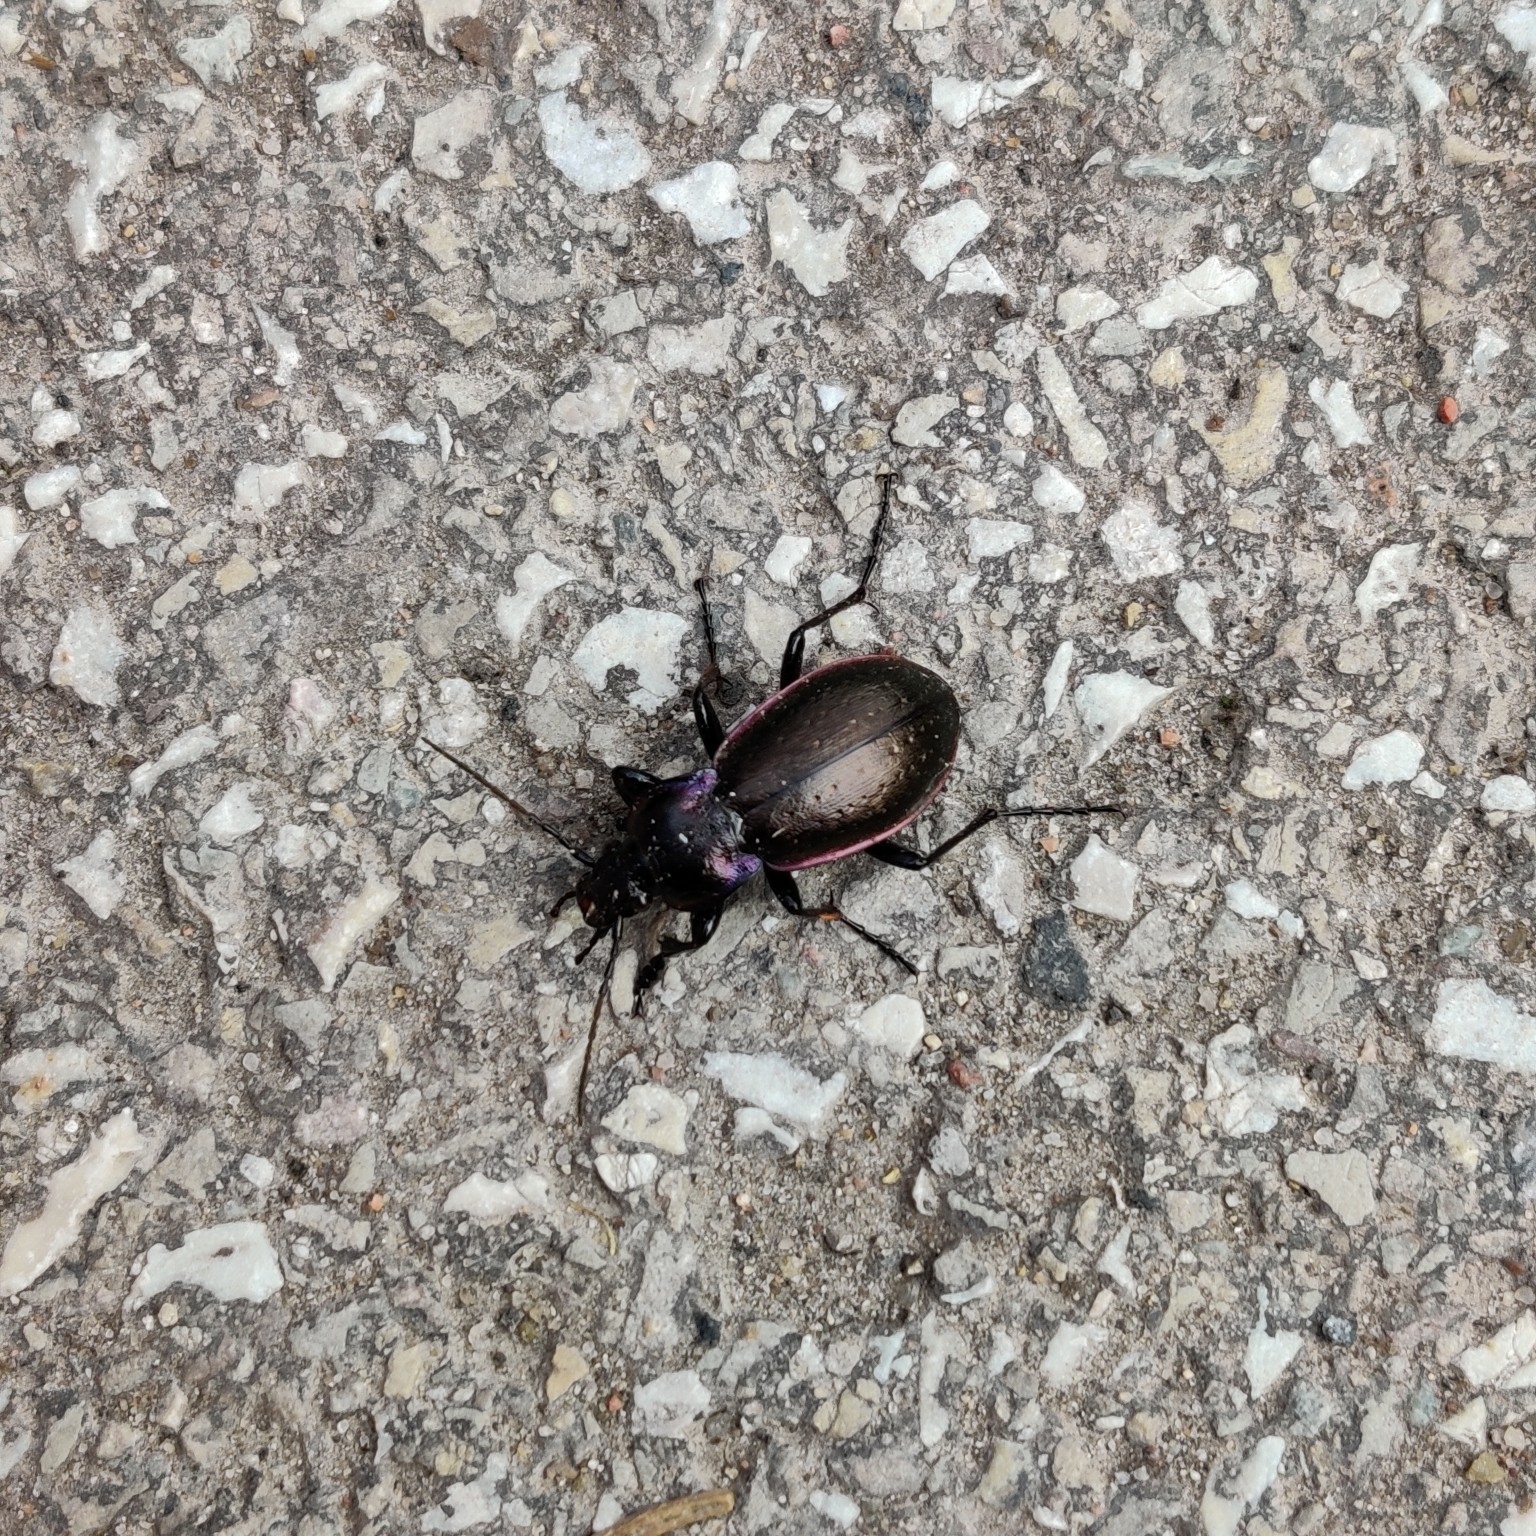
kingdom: Animalia
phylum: Arthropoda
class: Insecta
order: Coleoptera
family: Carabidae
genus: Carabus
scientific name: Carabus nemoralis
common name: European ground beetle
